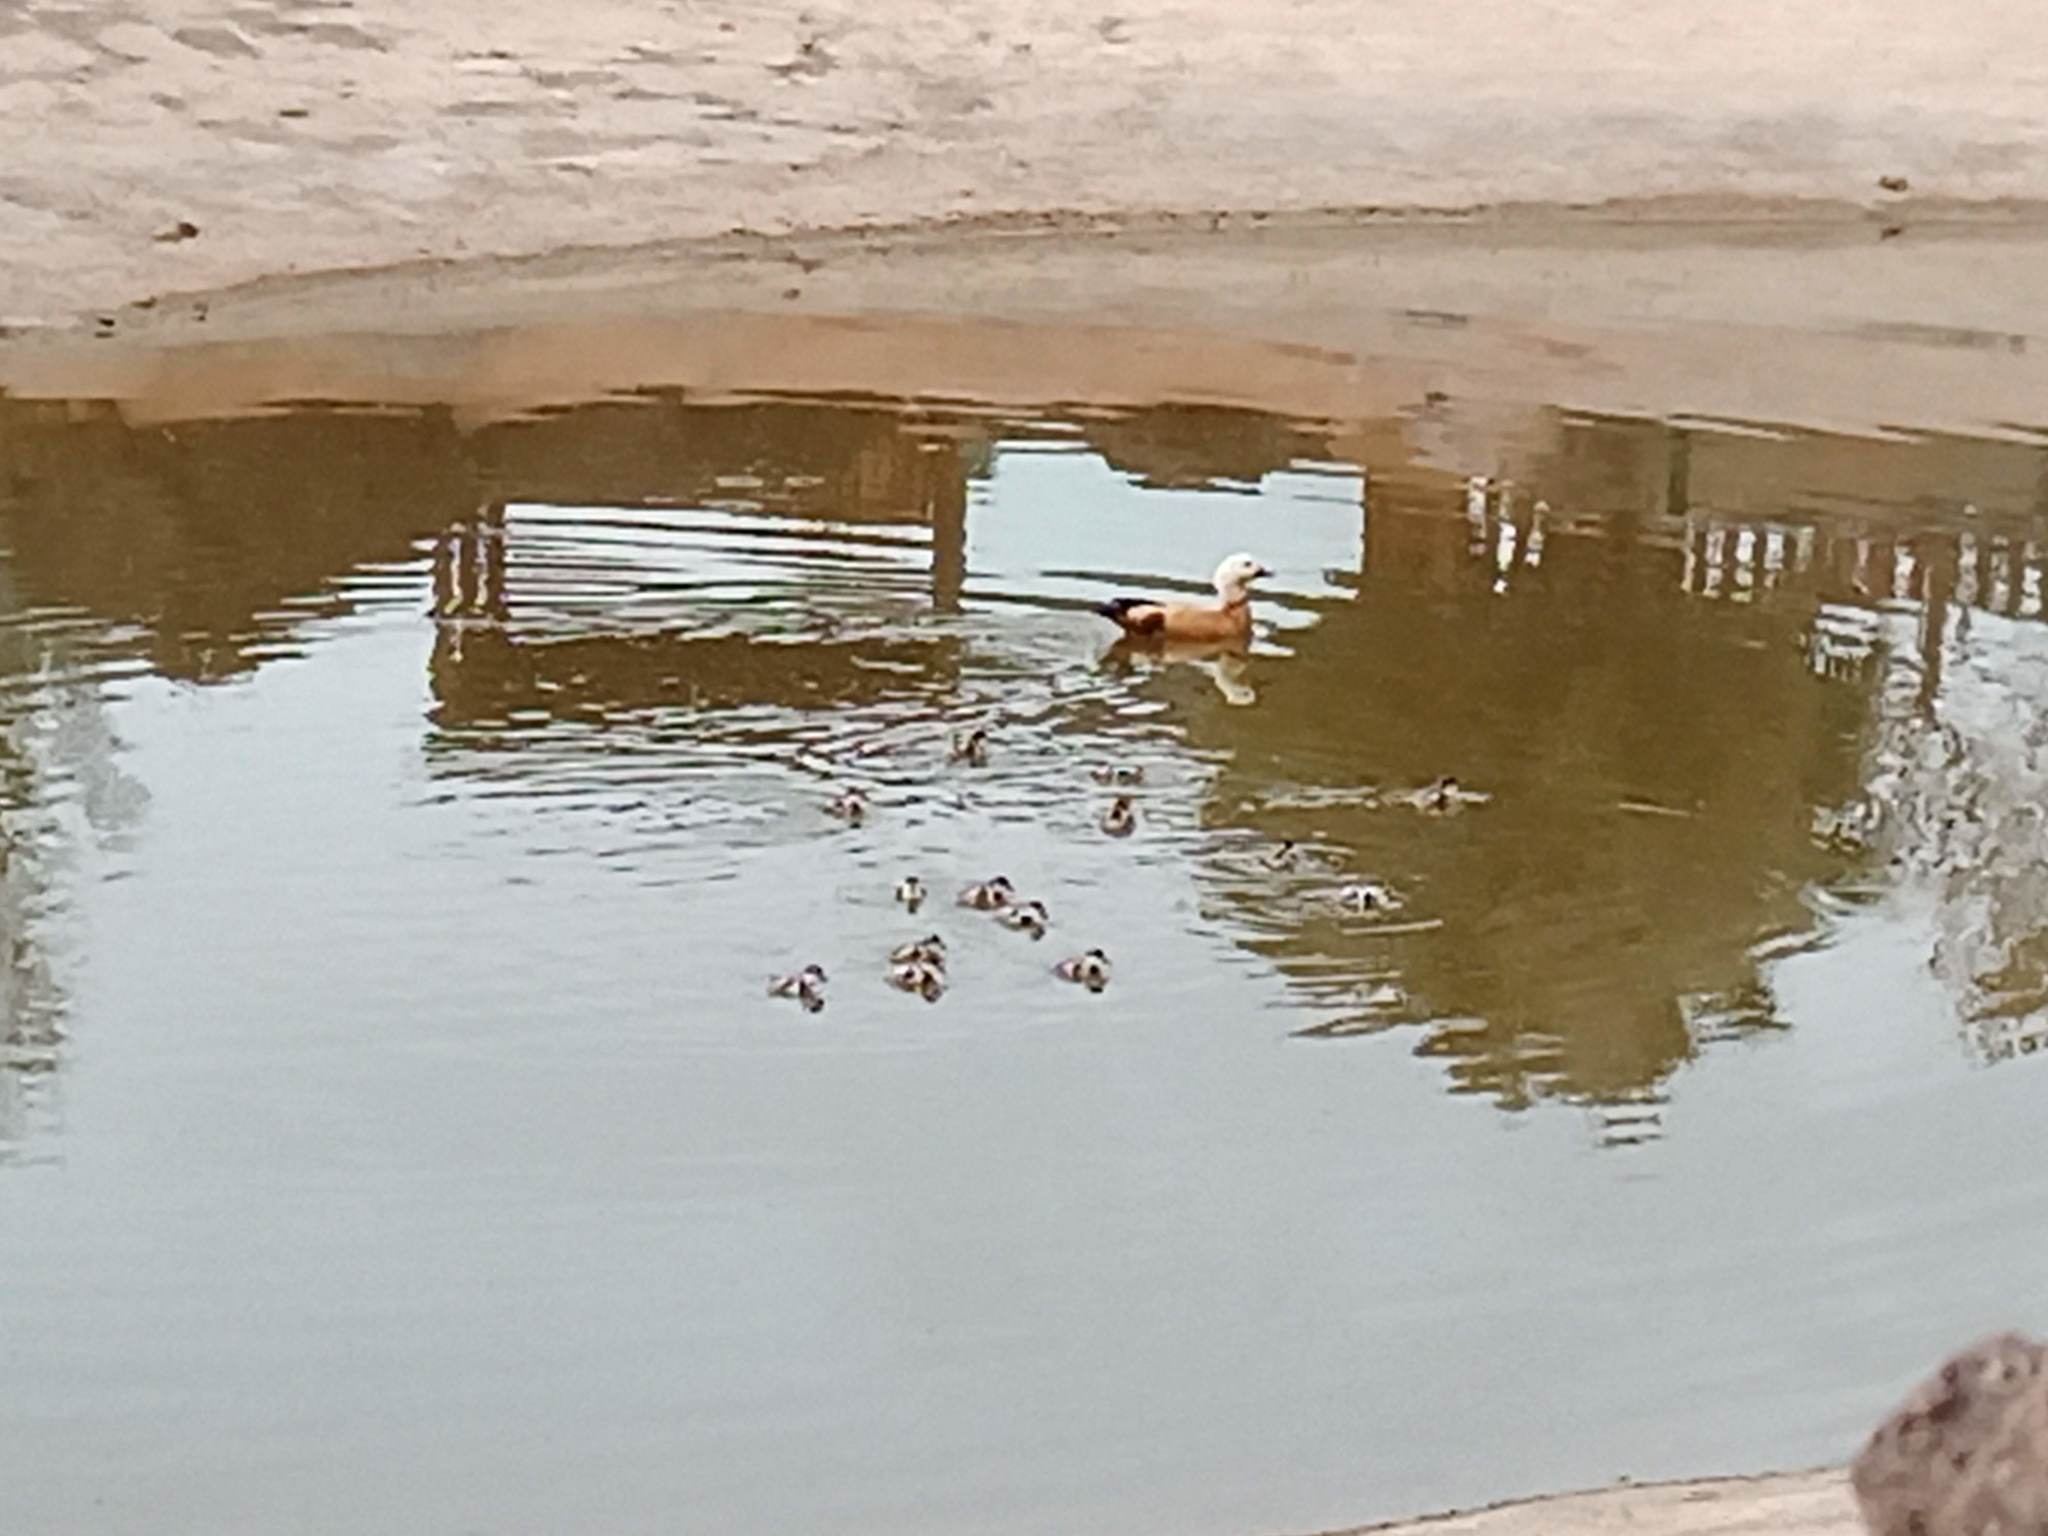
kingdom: Animalia
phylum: Chordata
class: Aves
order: Anseriformes
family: Anatidae
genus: Tadorna
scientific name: Tadorna ferruginea
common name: Ruddy shelduck
